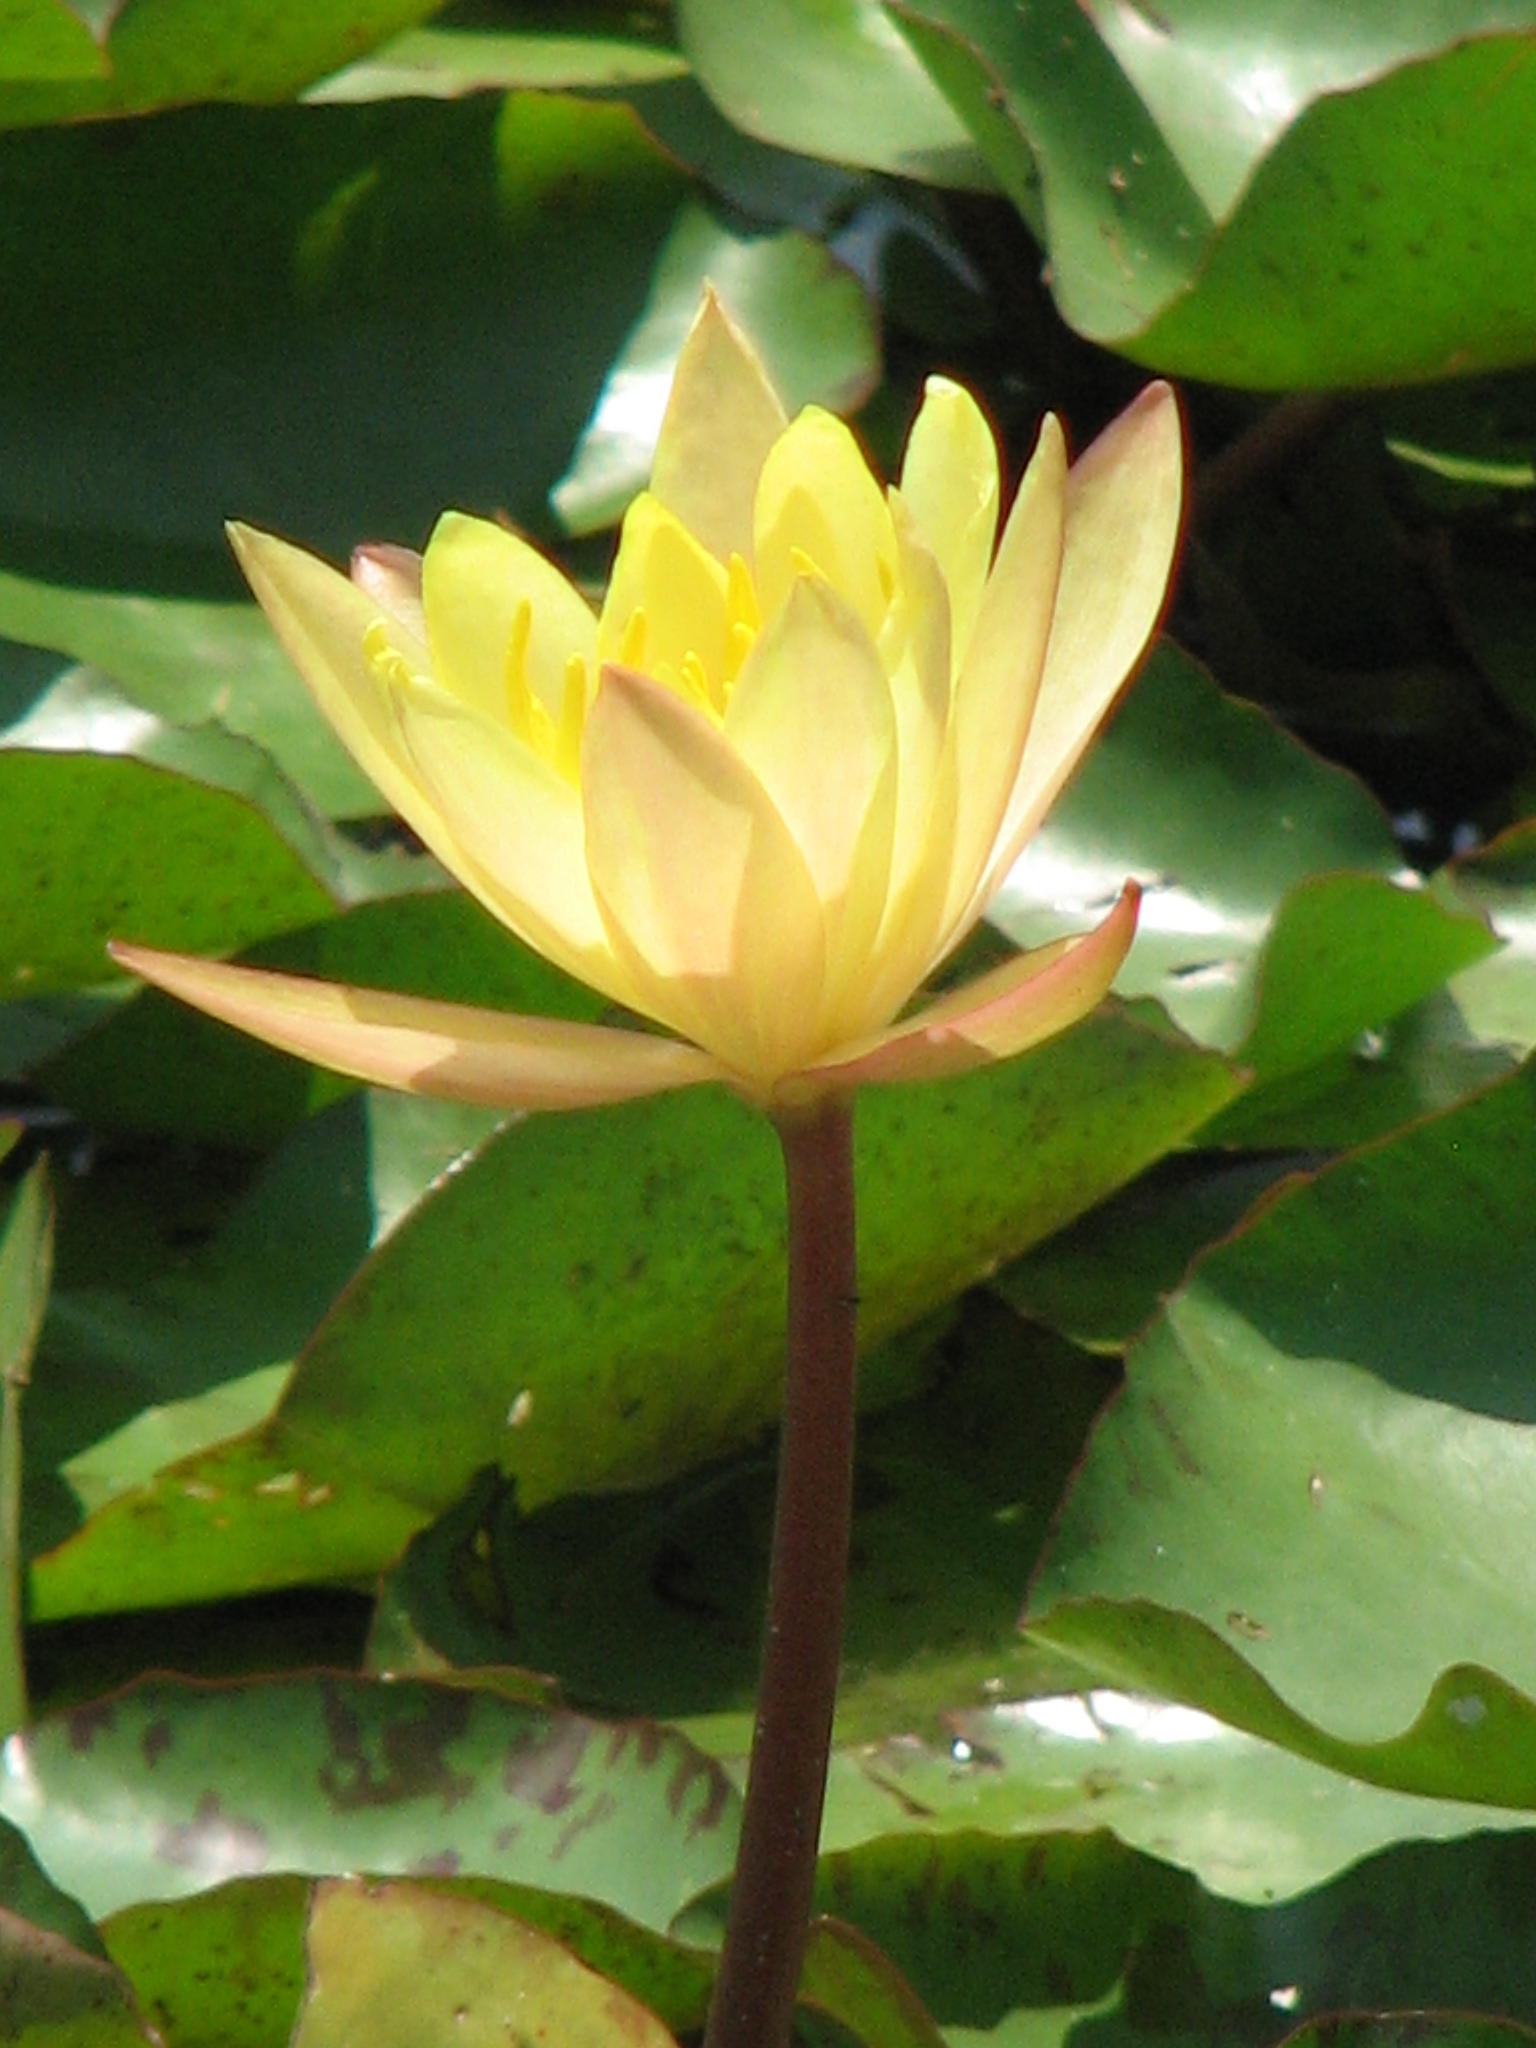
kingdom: Plantae
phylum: Tracheophyta
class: Magnoliopsida
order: Nymphaeales
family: Nymphaeaceae
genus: Nymphaea
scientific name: Nymphaea mexicana
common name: Banana water-lily
